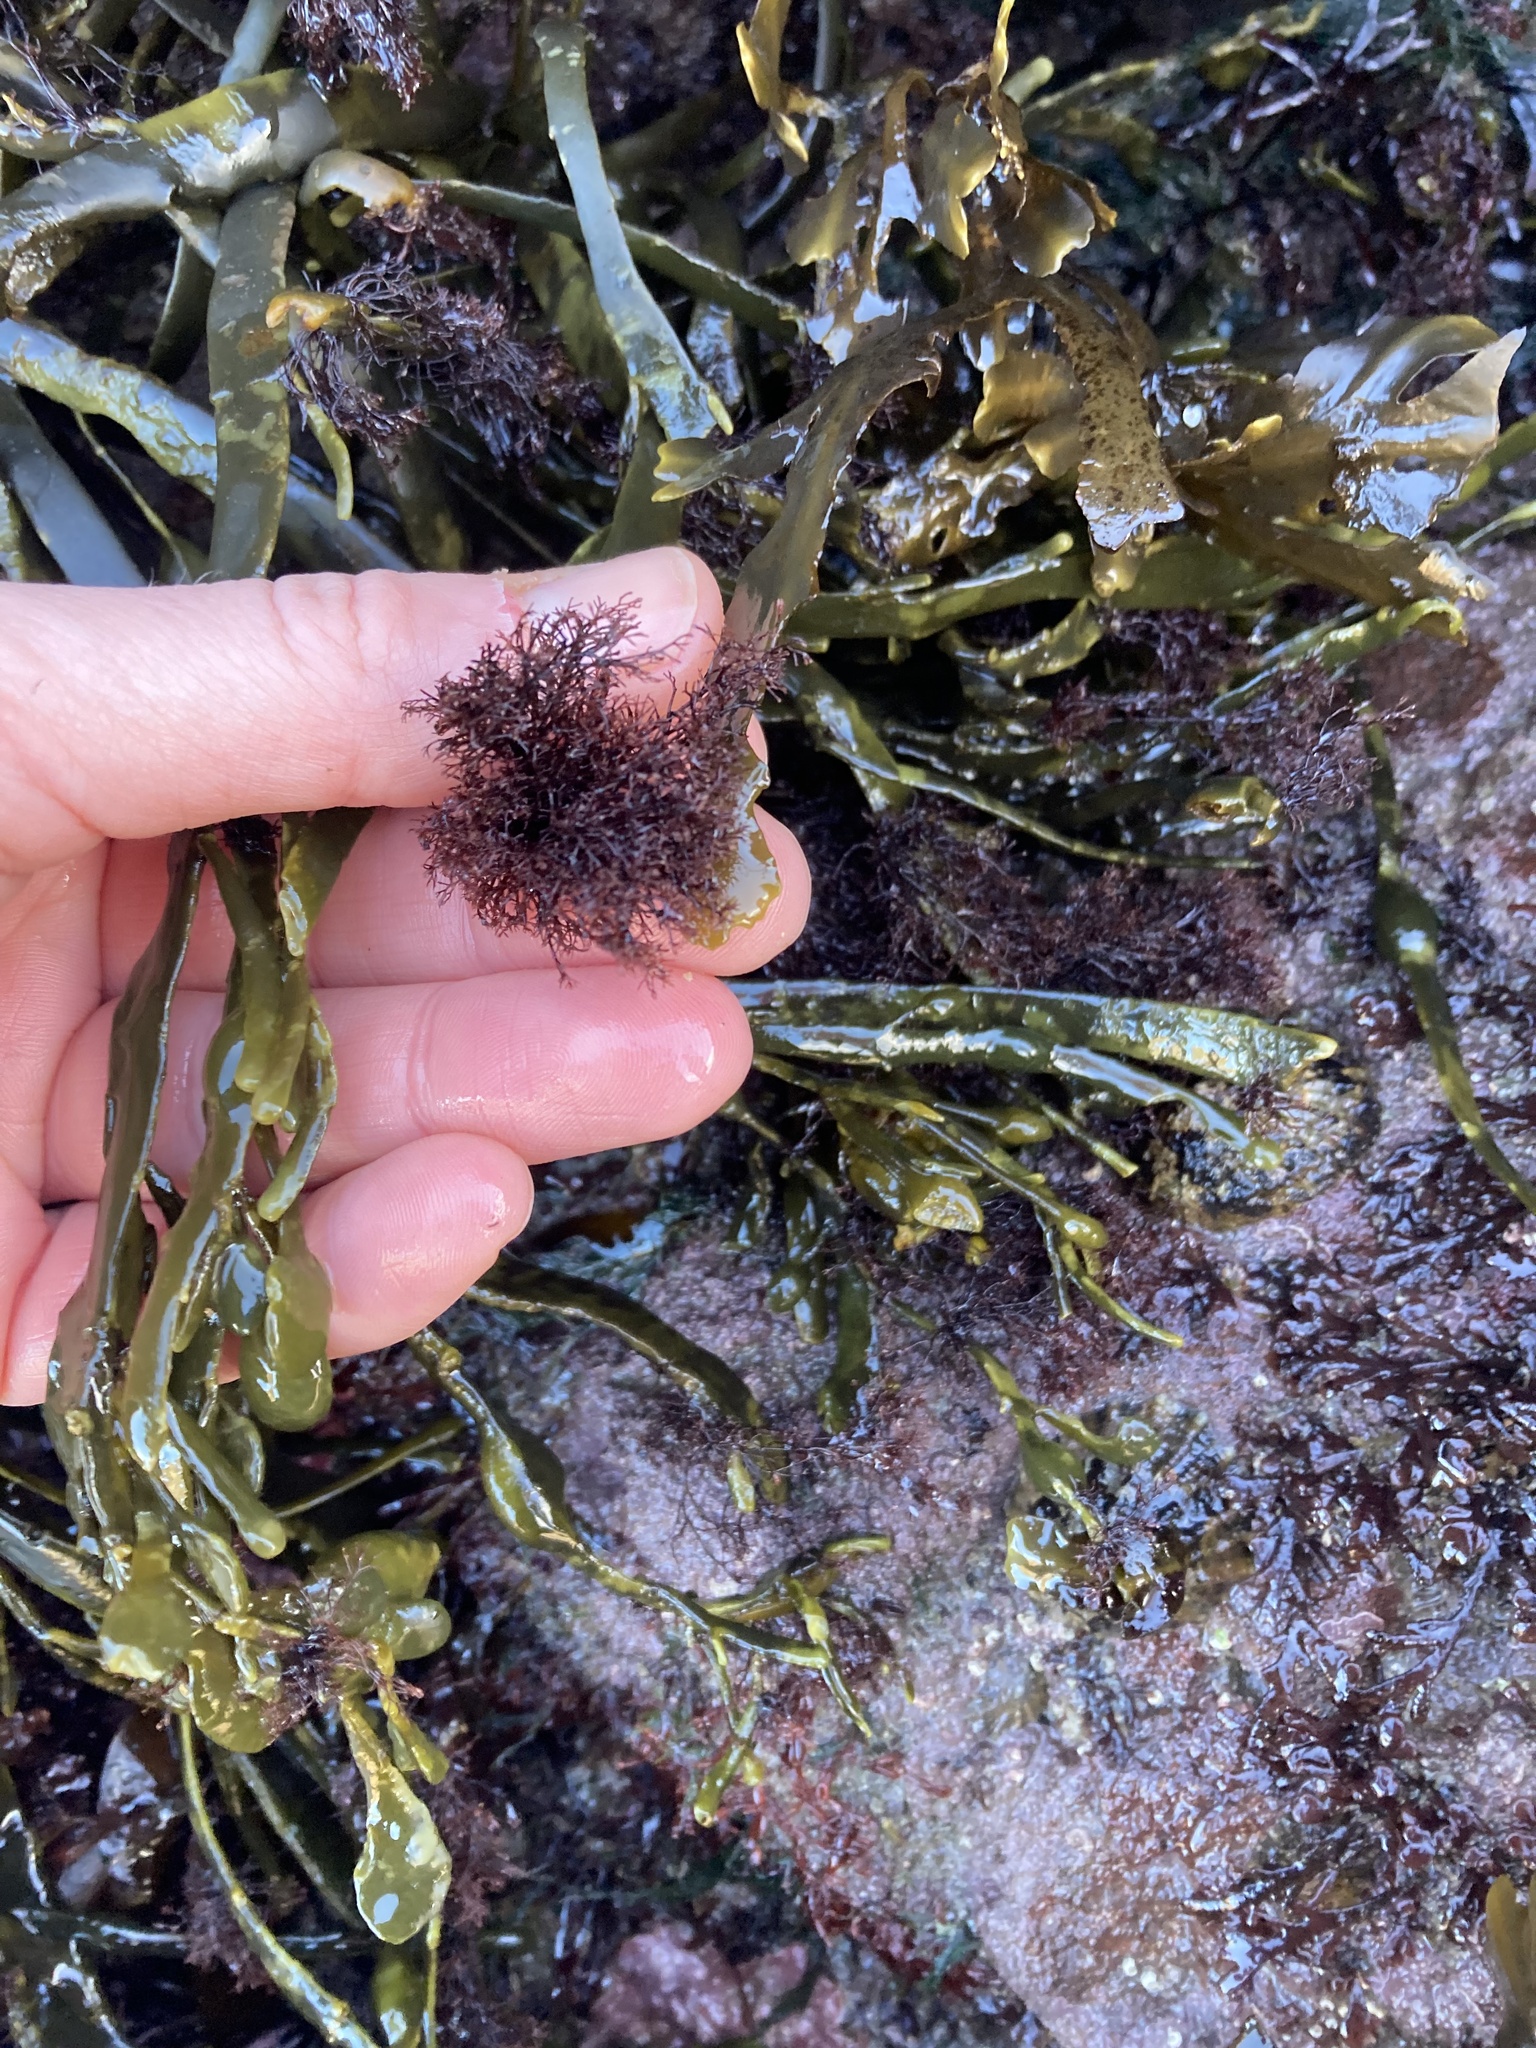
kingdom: Chromista
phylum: Ochrophyta
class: Phaeophyceae
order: Fucales
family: Fucaceae
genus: Ascophyllum
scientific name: Ascophyllum nodosum
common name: Knotted wrack
